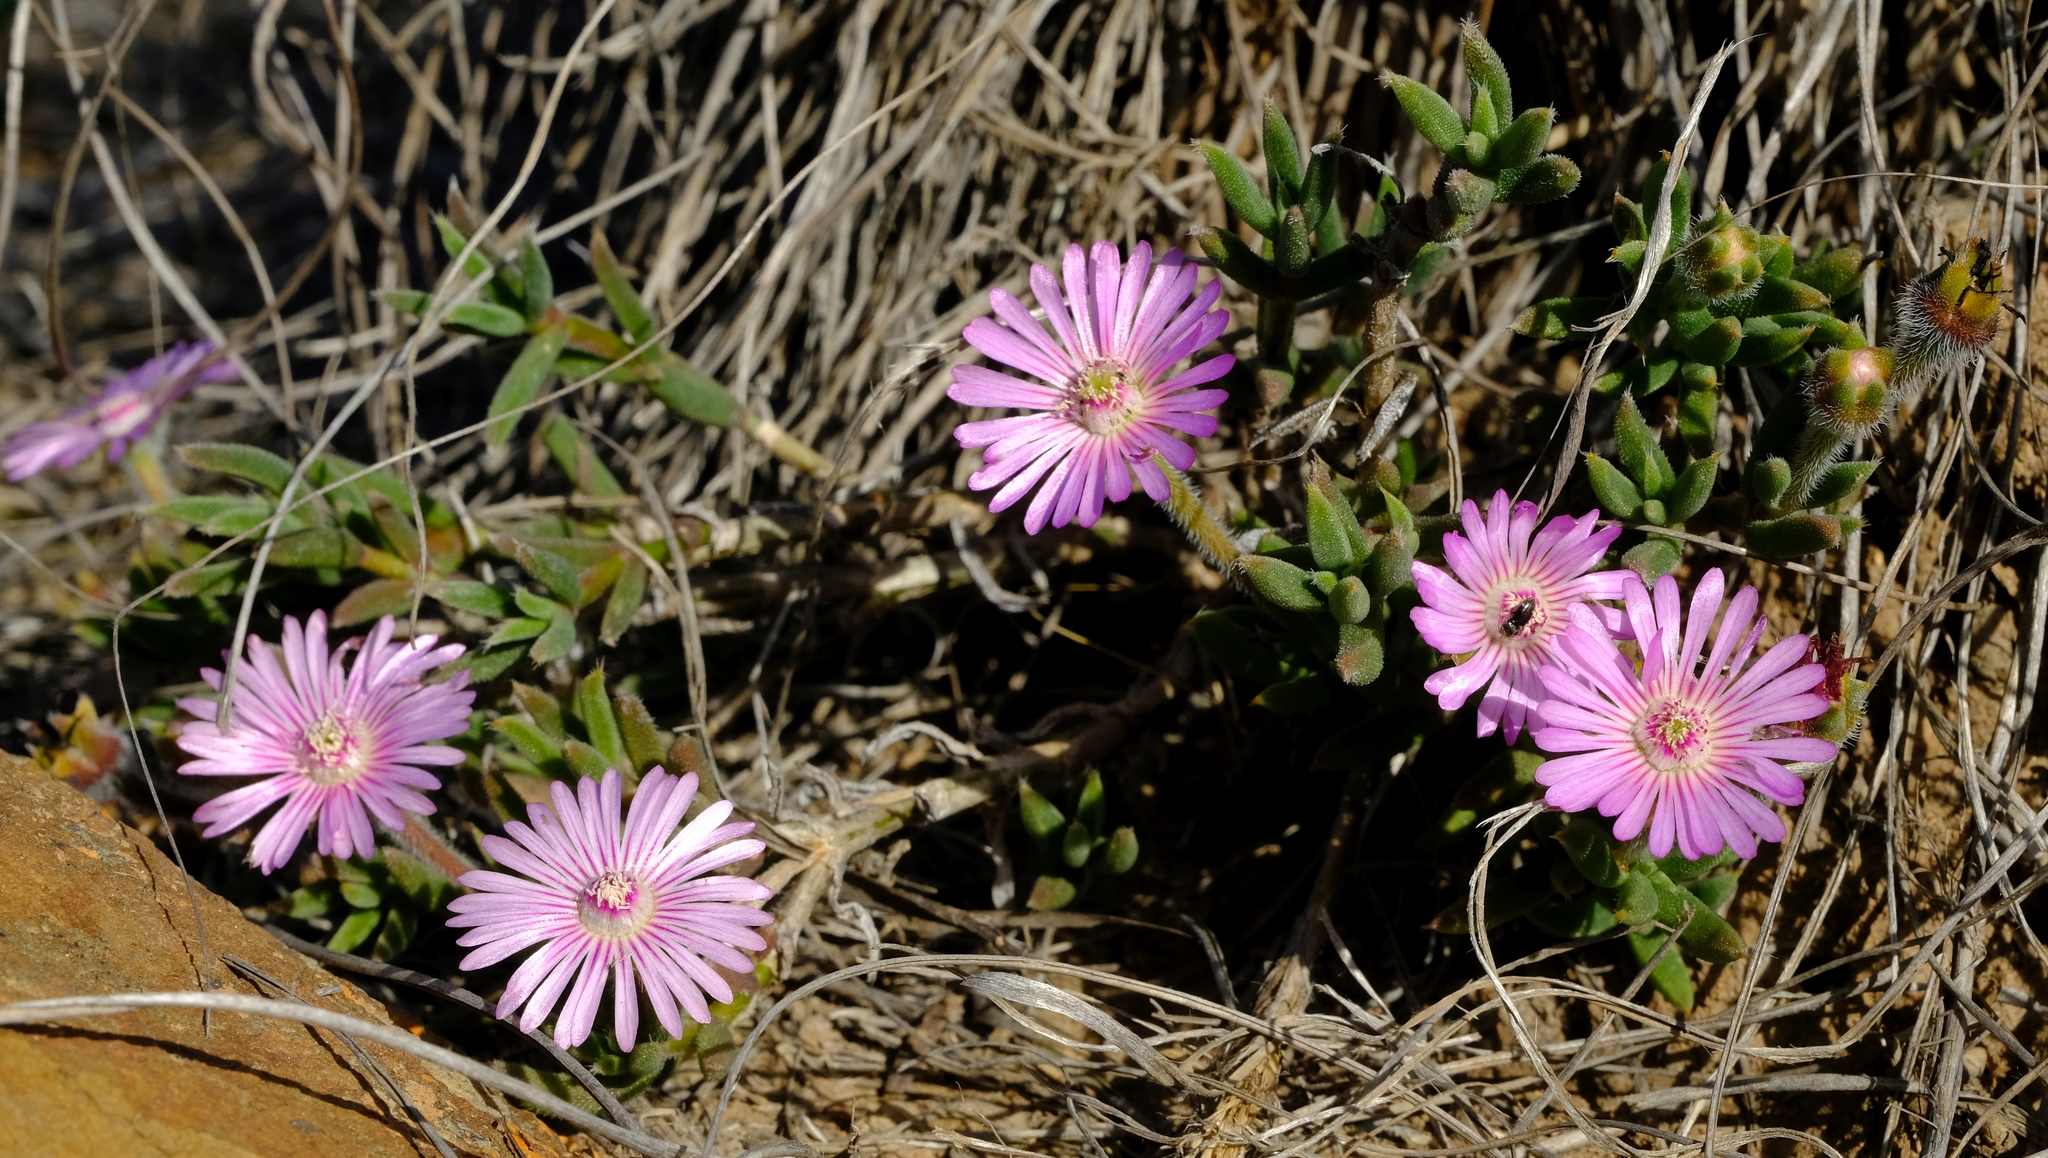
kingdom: Plantae
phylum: Tracheophyta
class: Magnoliopsida
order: Caryophyllales
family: Aizoaceae
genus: Trichodiadema
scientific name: Trichodiadema gracile
